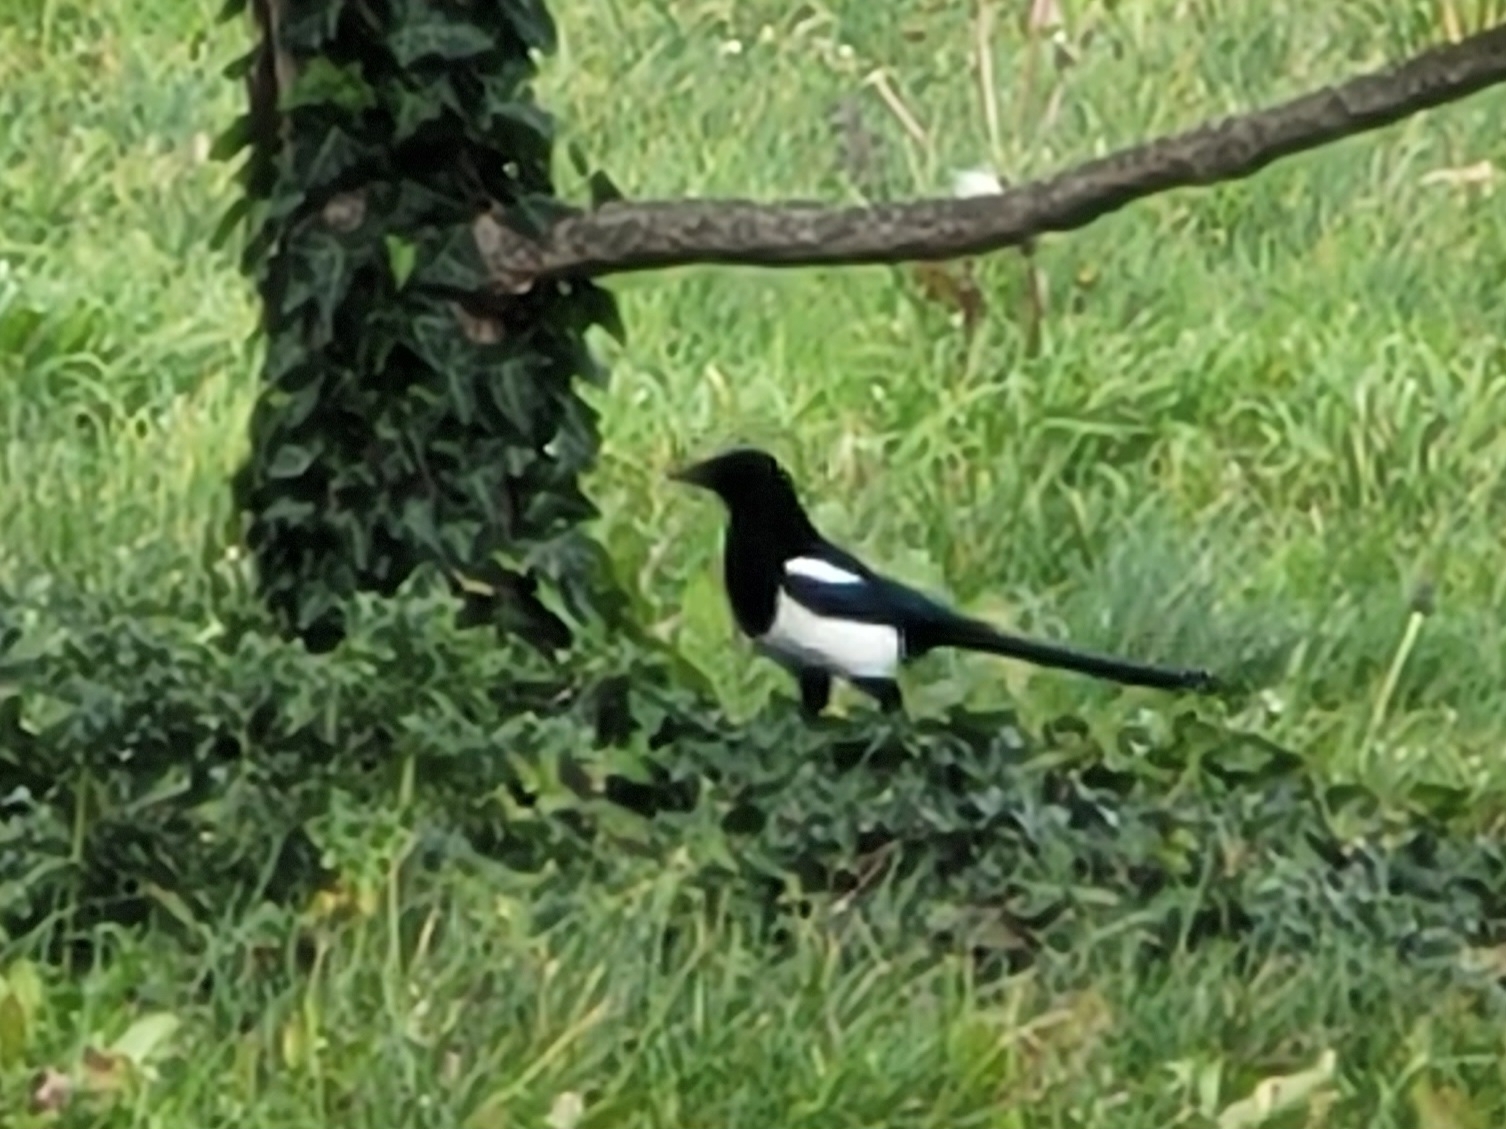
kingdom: Animalia
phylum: Chordata
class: Aves
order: Passeriformes
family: Corvidae
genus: Pica
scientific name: Pica pica
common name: Eurasian magpie
